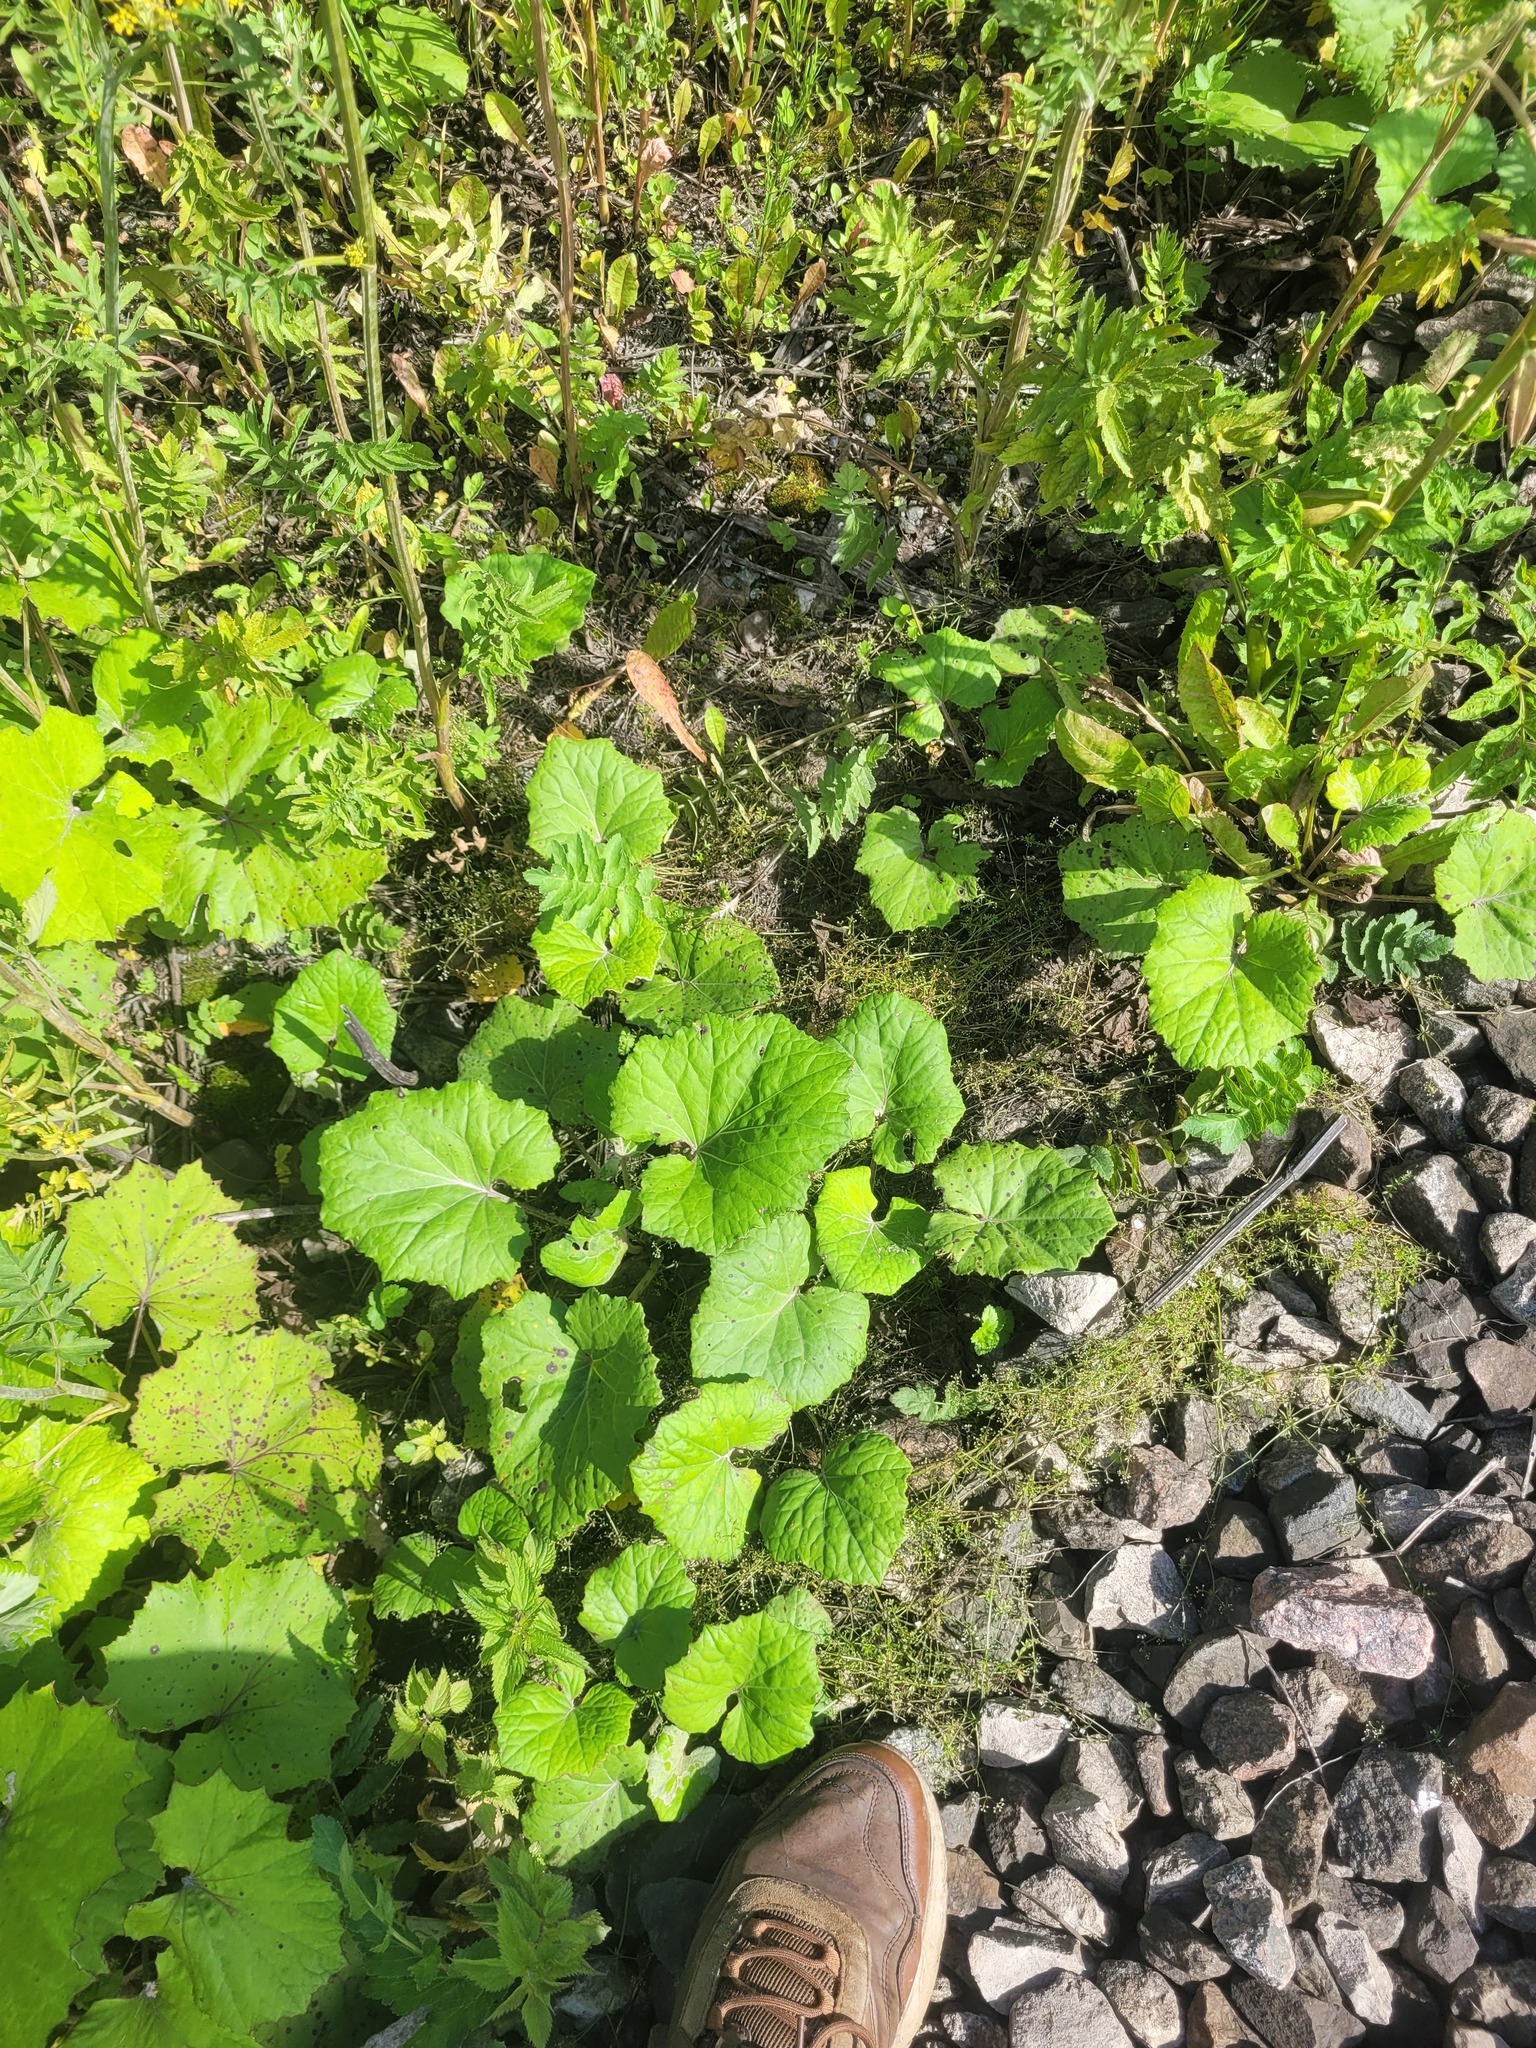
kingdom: Plantae
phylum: Tracheophyta
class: Magnoliopsida
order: Asterales
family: Asteraceae
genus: Tussilago
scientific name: Tussilago farfara
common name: Coltsfoot
